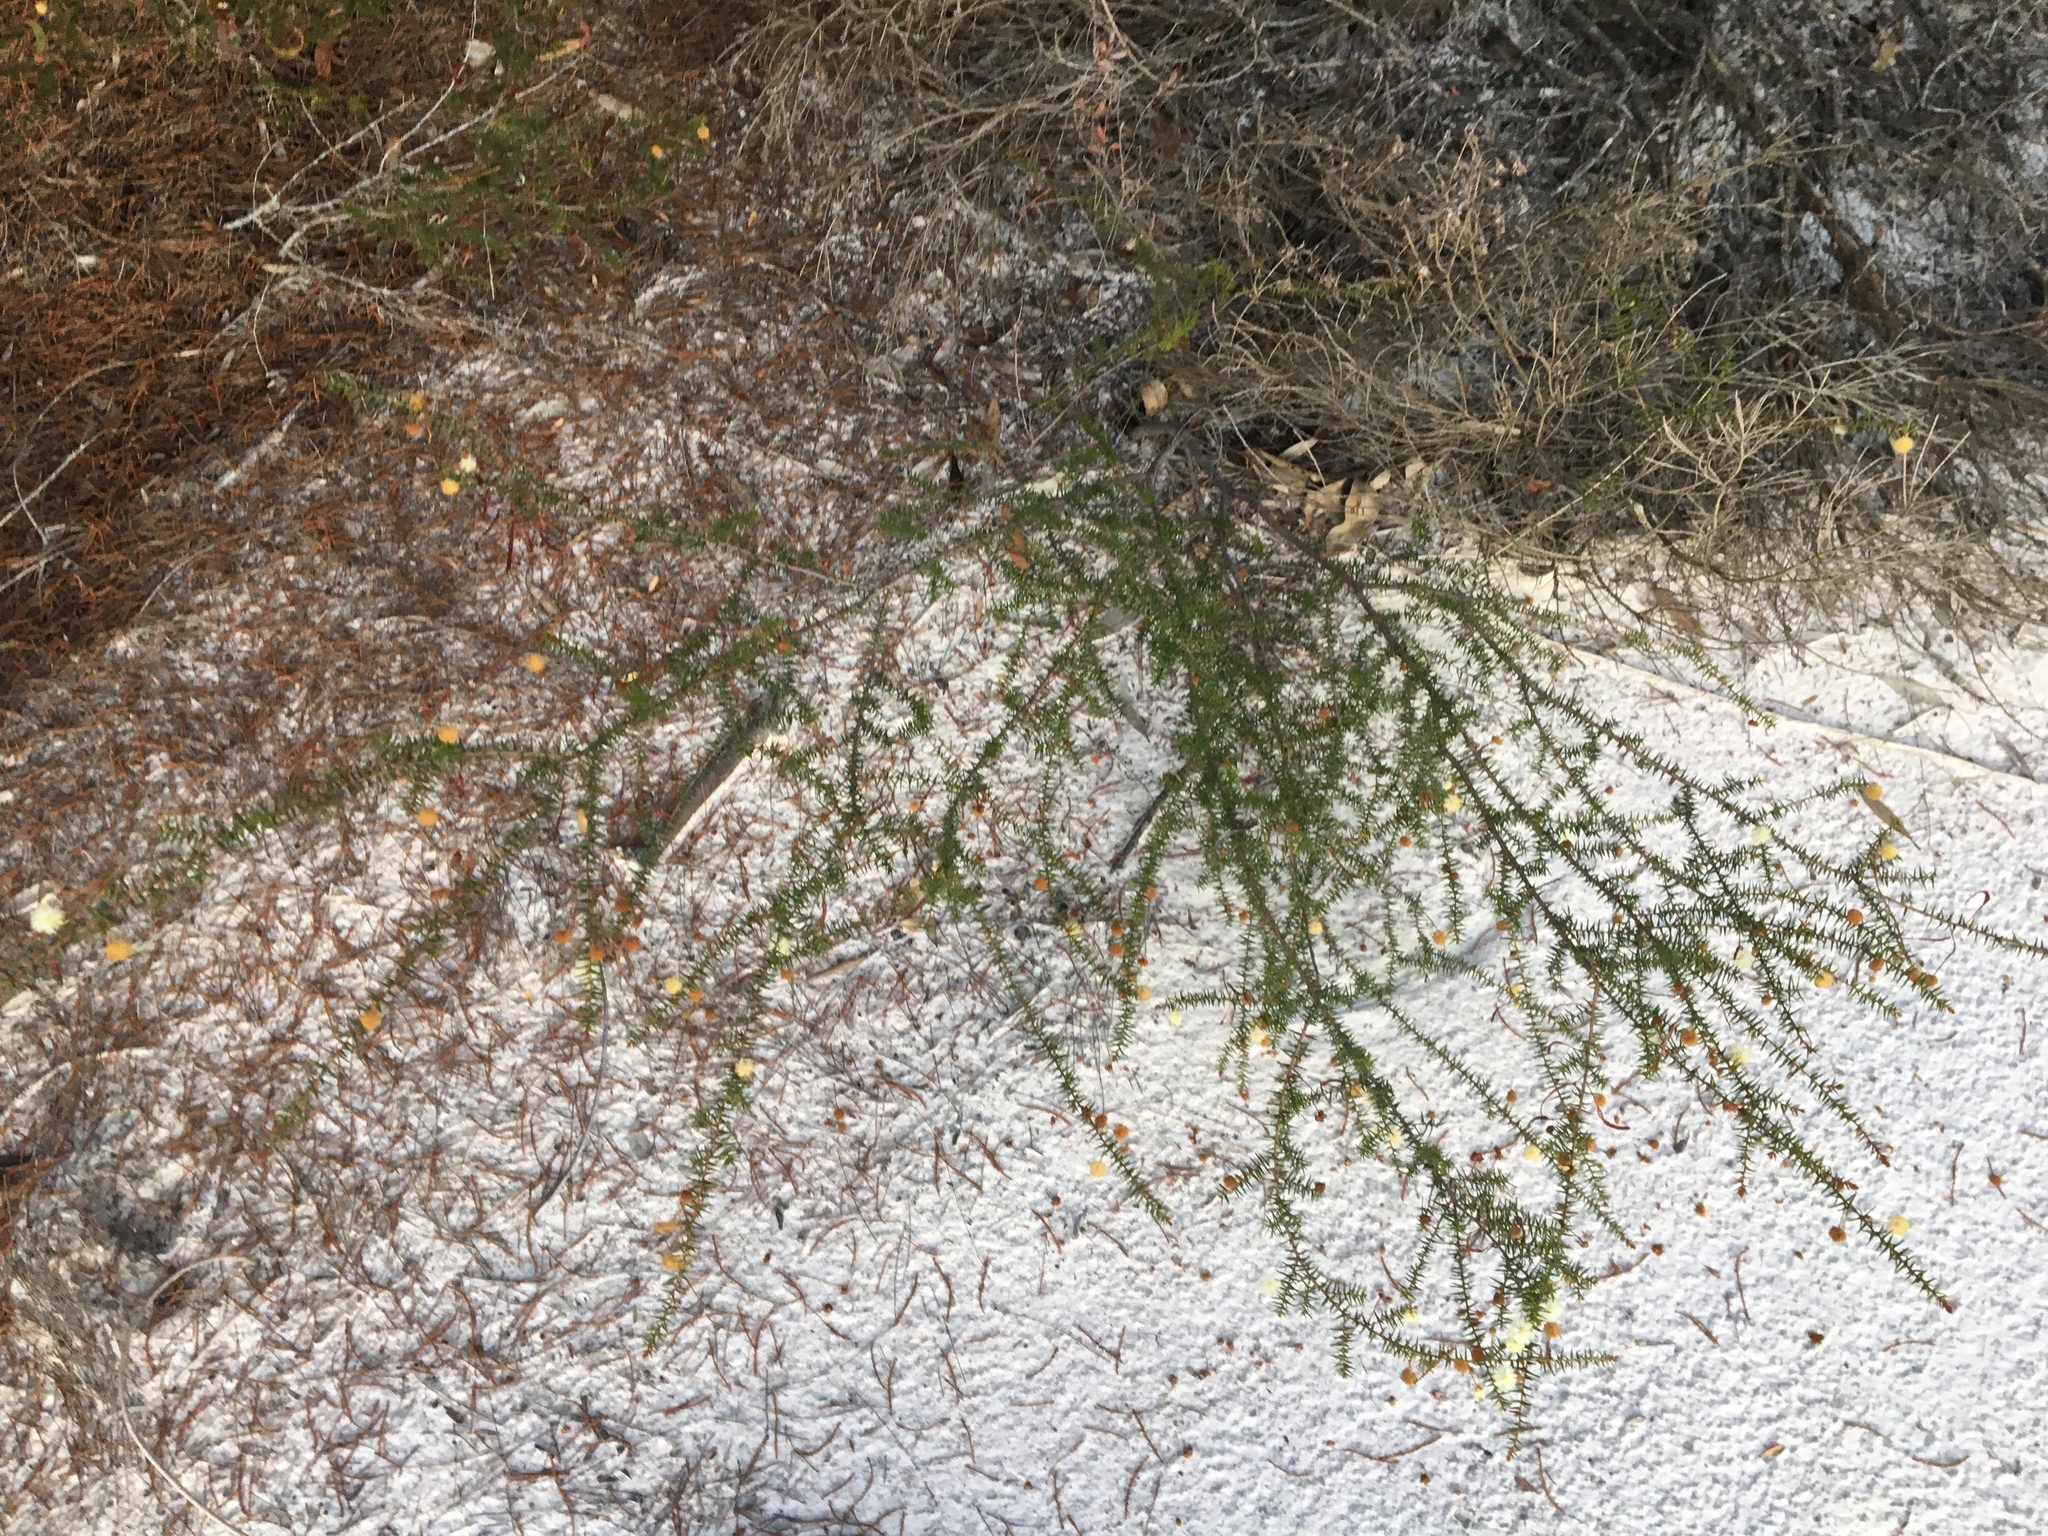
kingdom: Plantae
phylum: Tracheophyta
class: Magnoliopsida
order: Fabales
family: Fabaceae
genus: Acacia
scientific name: Acacia ulicifolia
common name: Juniper wattle
